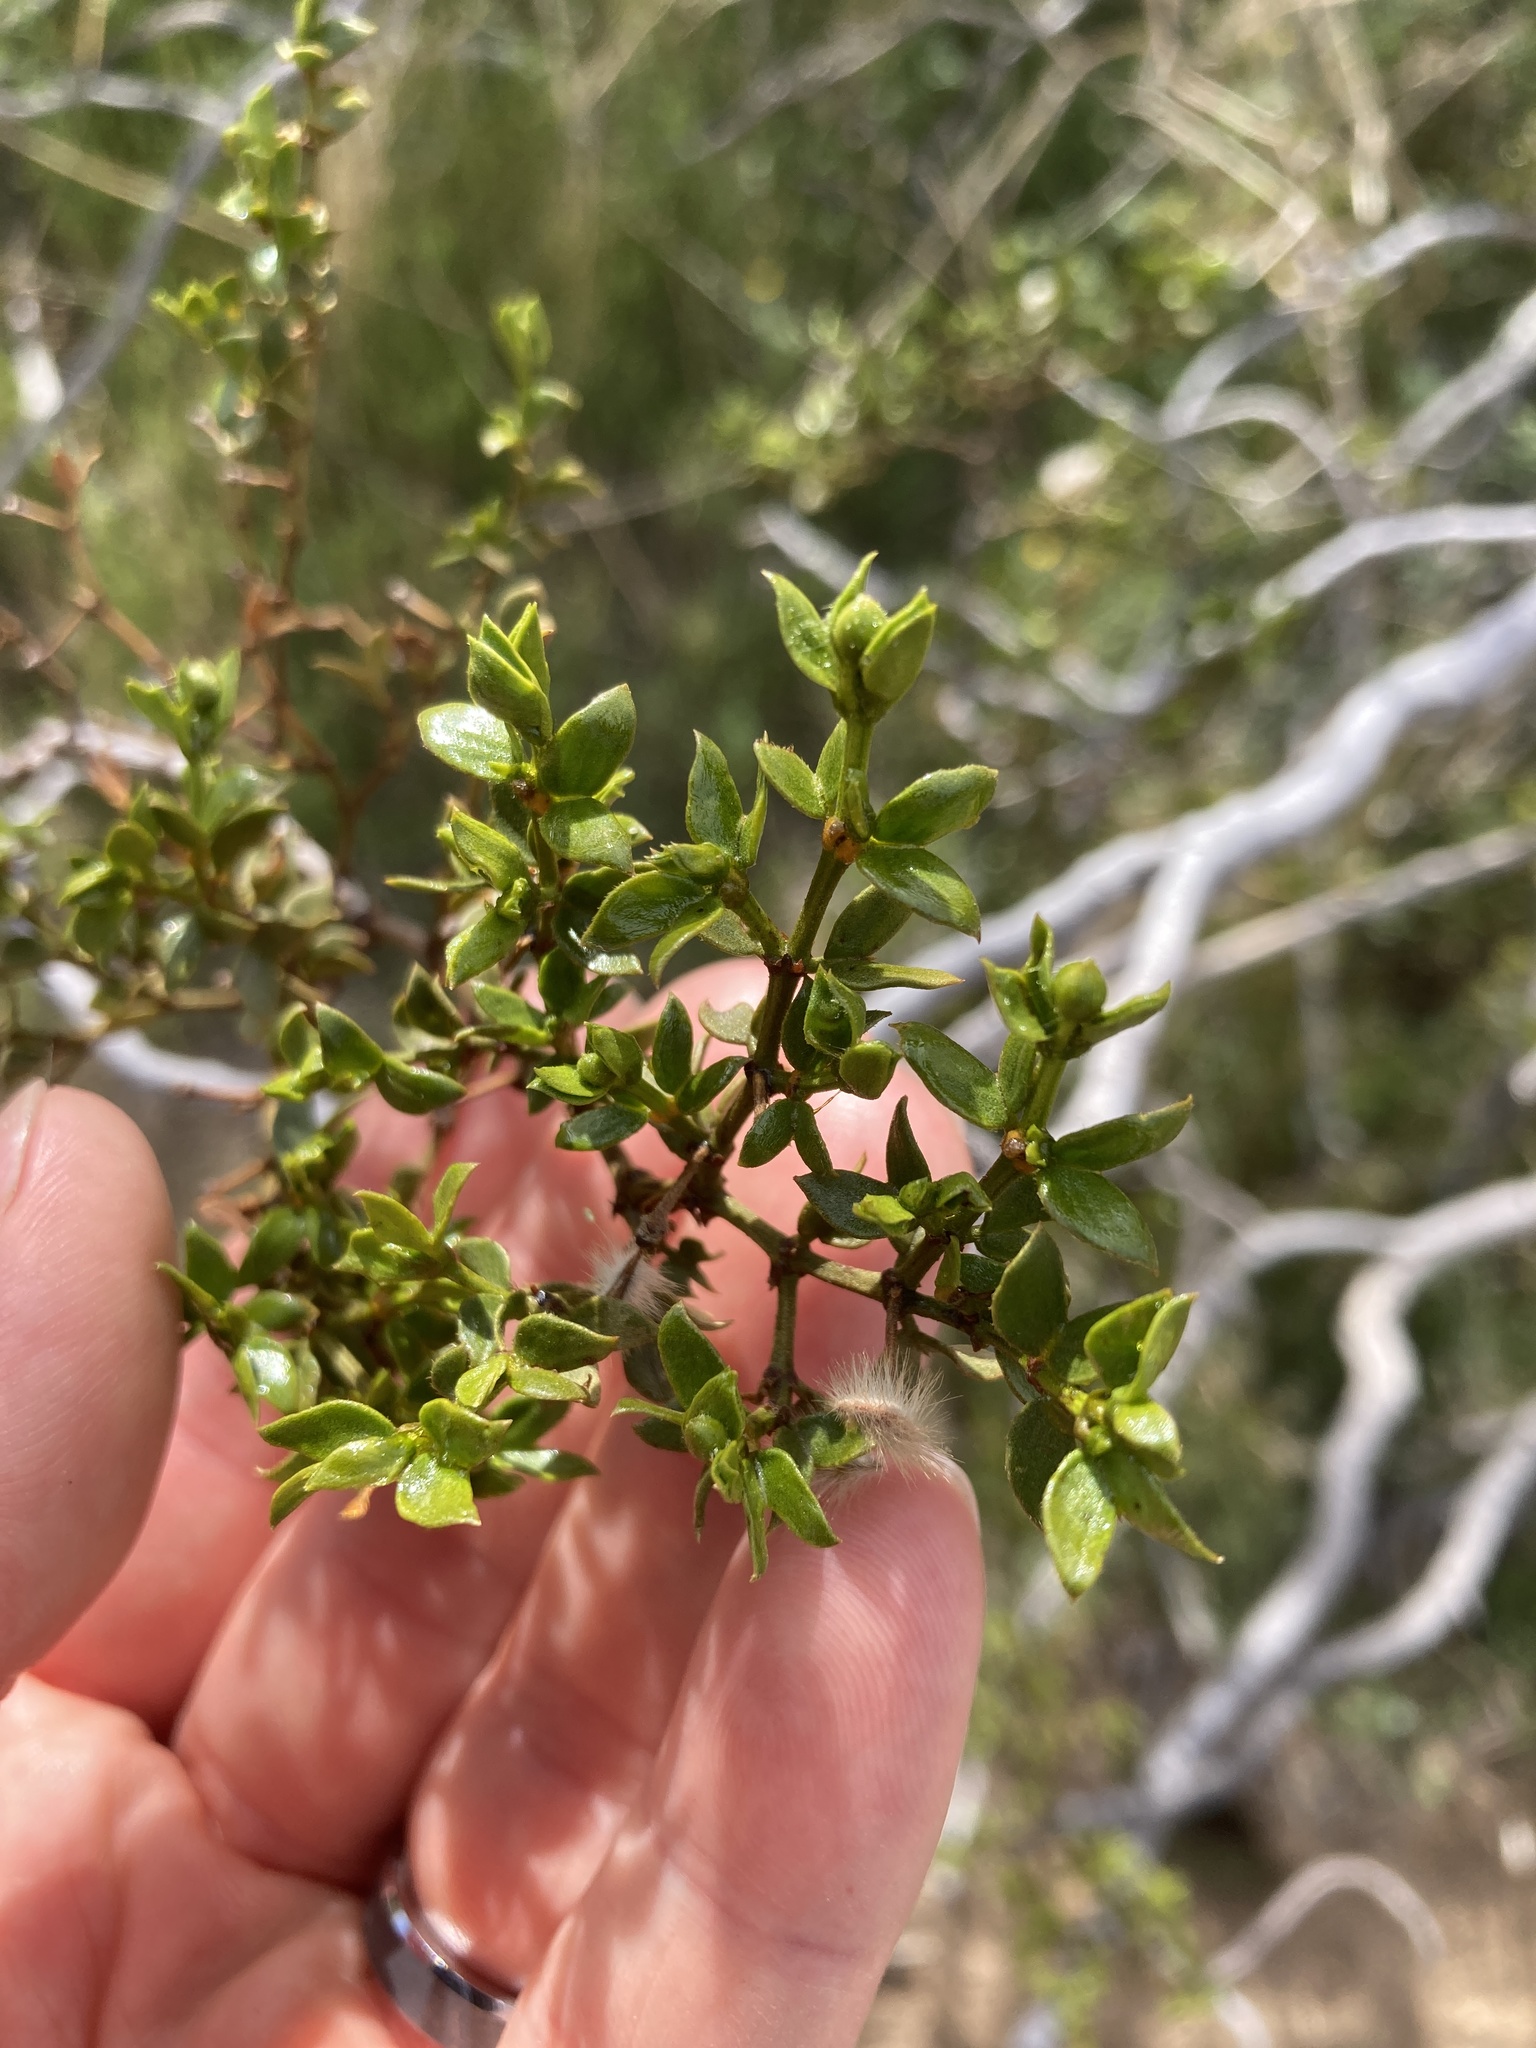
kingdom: Plantae
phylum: Tracheophyta
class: Magnoliopsida
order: Zygophyllales
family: Zygophyllaceae
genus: Larrea
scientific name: Larrea tridentata
